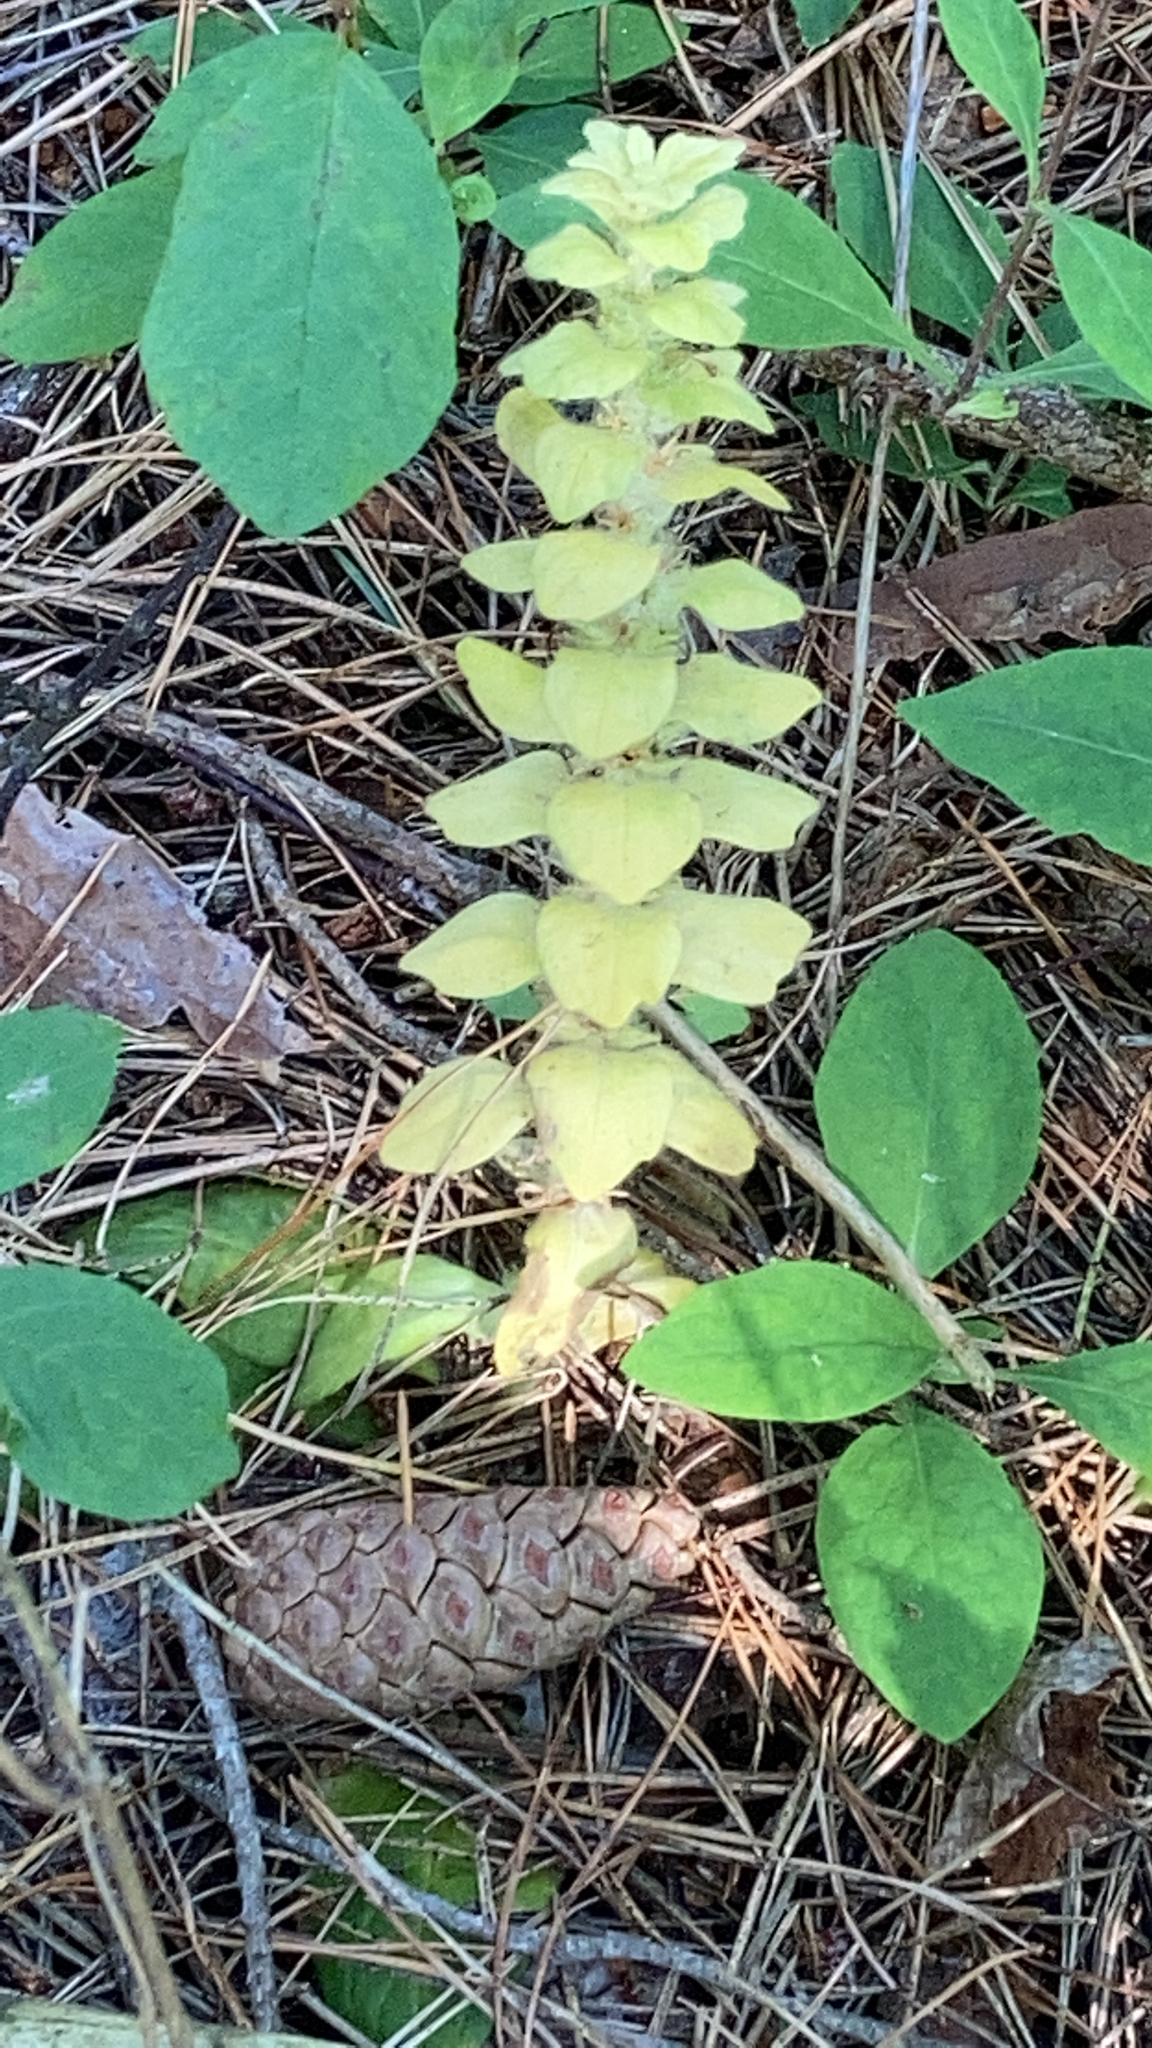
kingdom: Plantae
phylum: Tracheophyta
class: Magnoliopsida
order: Lamiales
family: Lamiaceae
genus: Ajuga
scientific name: Ajuga pyramidalis
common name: Pyramid bugle
